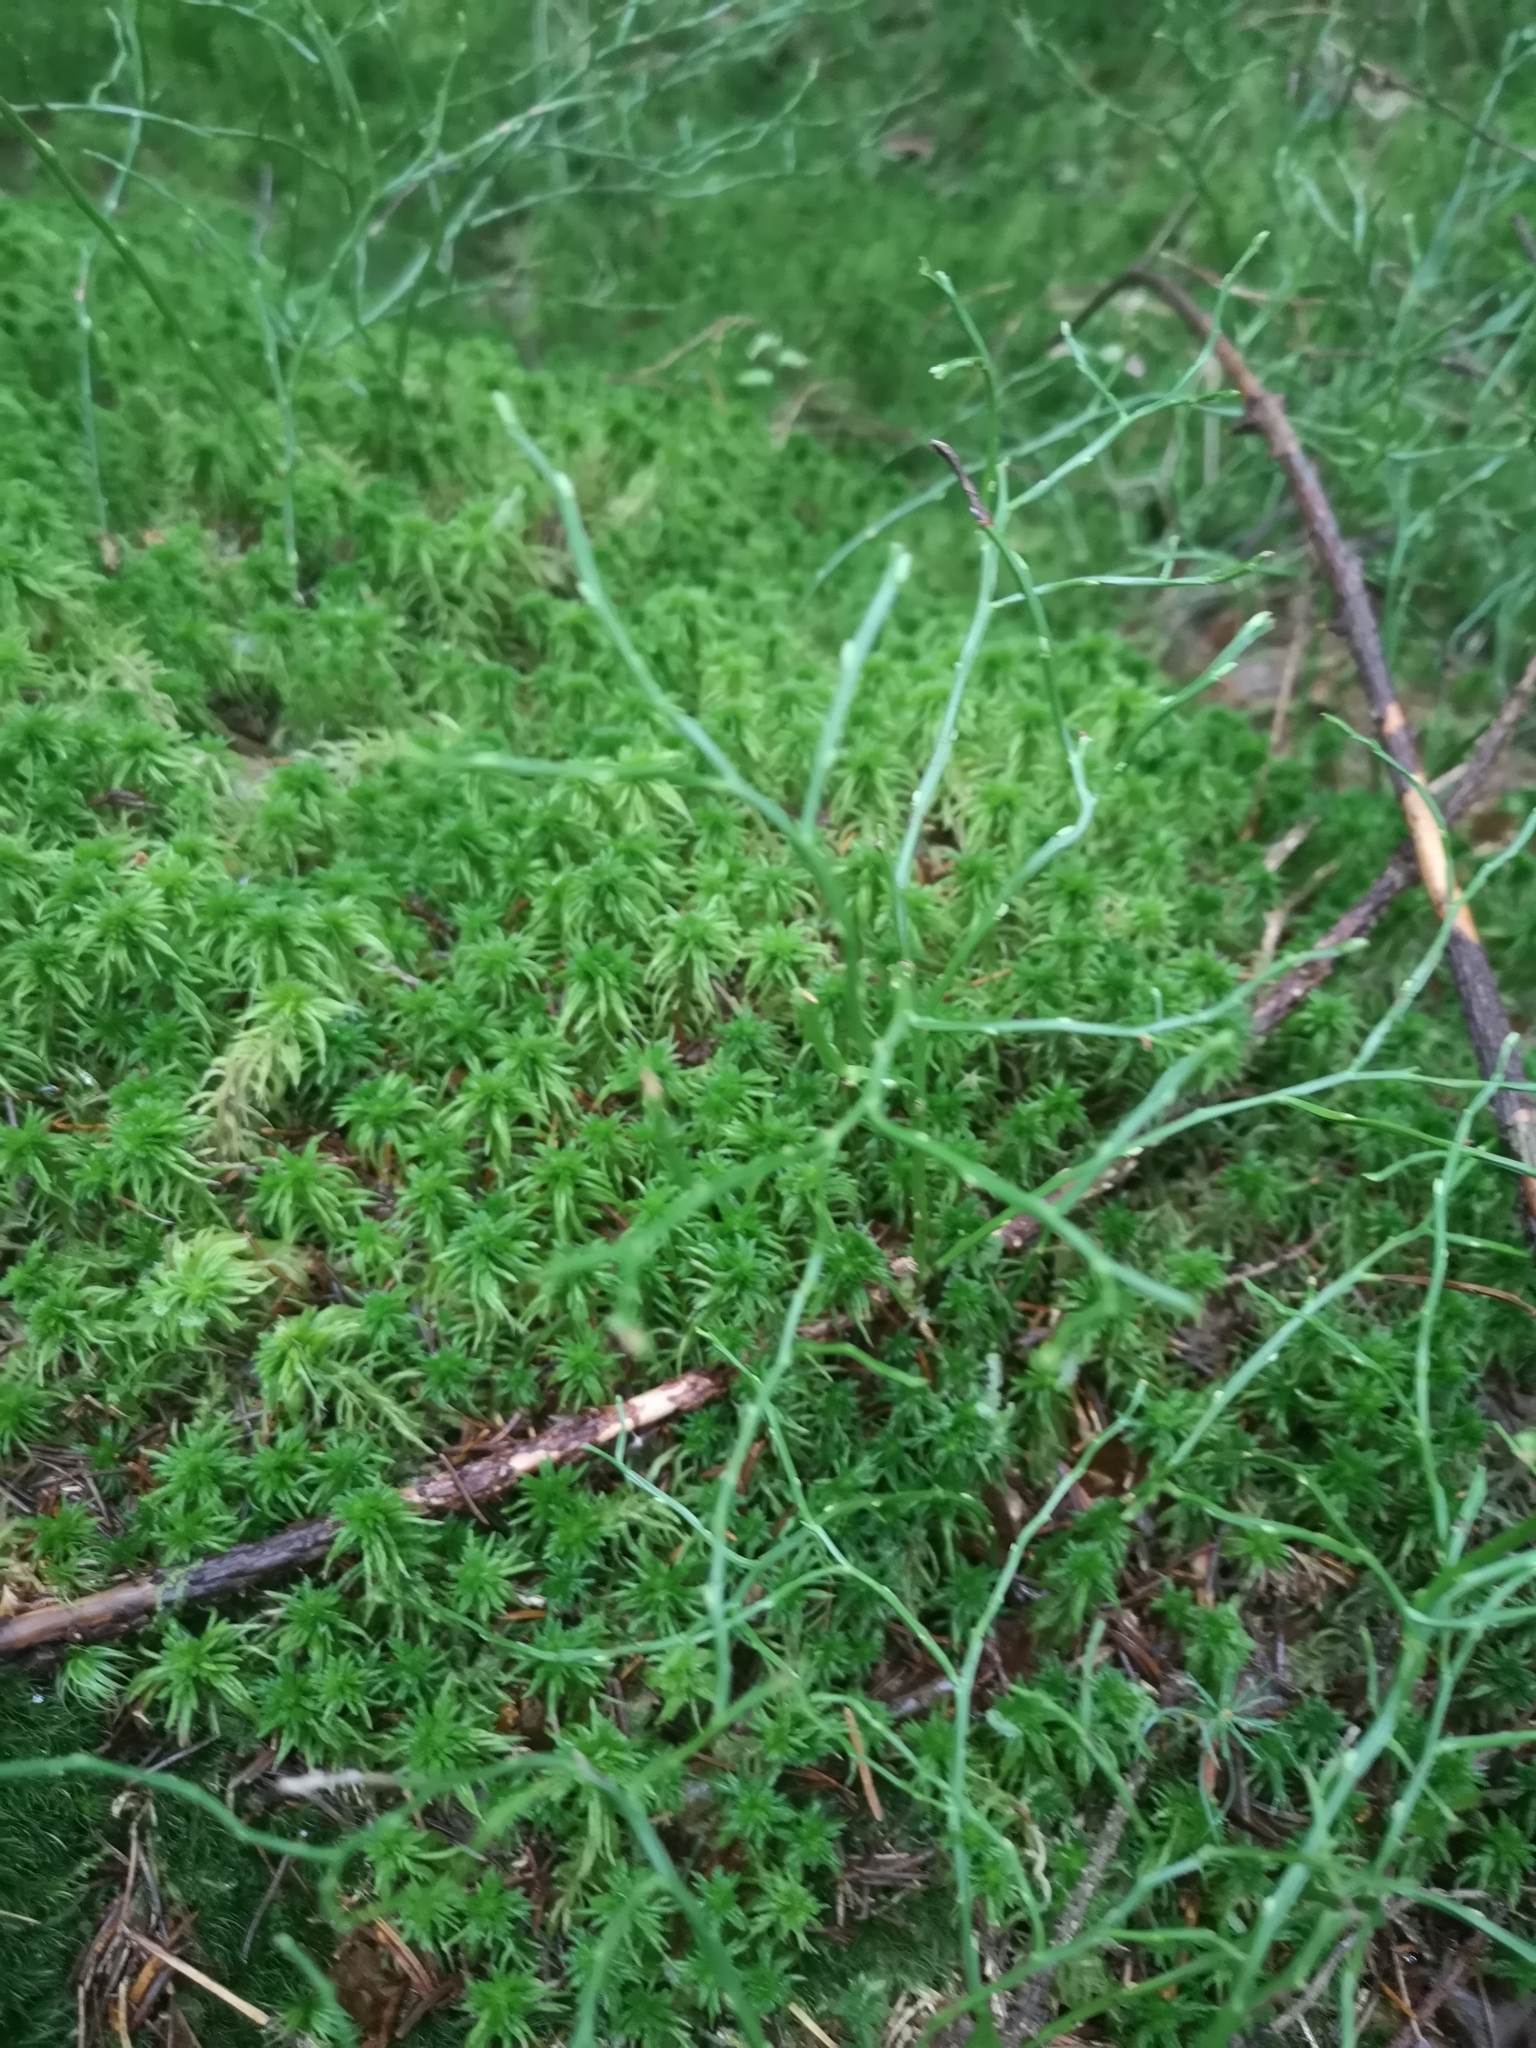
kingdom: Plantae
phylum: Tracheophyta
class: Magnoliopsida
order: Ericales
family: Ericaceae
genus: Vaccinium
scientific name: Vaccinium myrtillus
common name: Bilberry
